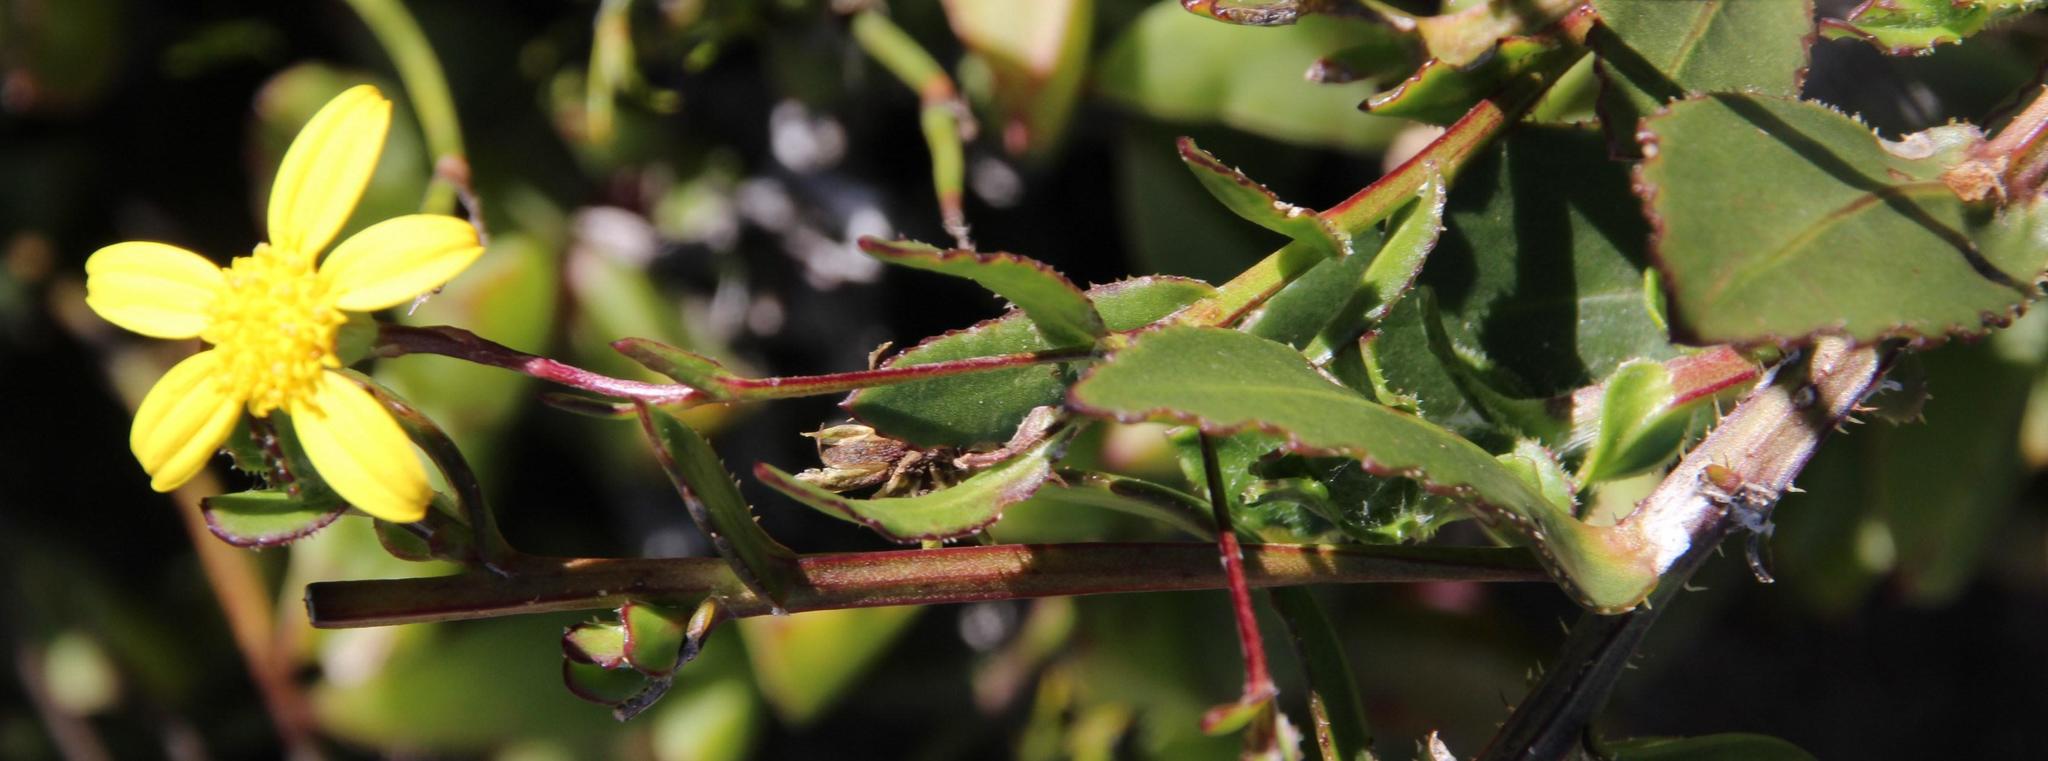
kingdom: Plantae
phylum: Tracheophyta
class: Magnoliopsida
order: Asterales
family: Asteraceae
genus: Osteospermum
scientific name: Osteospermum ciliatum
